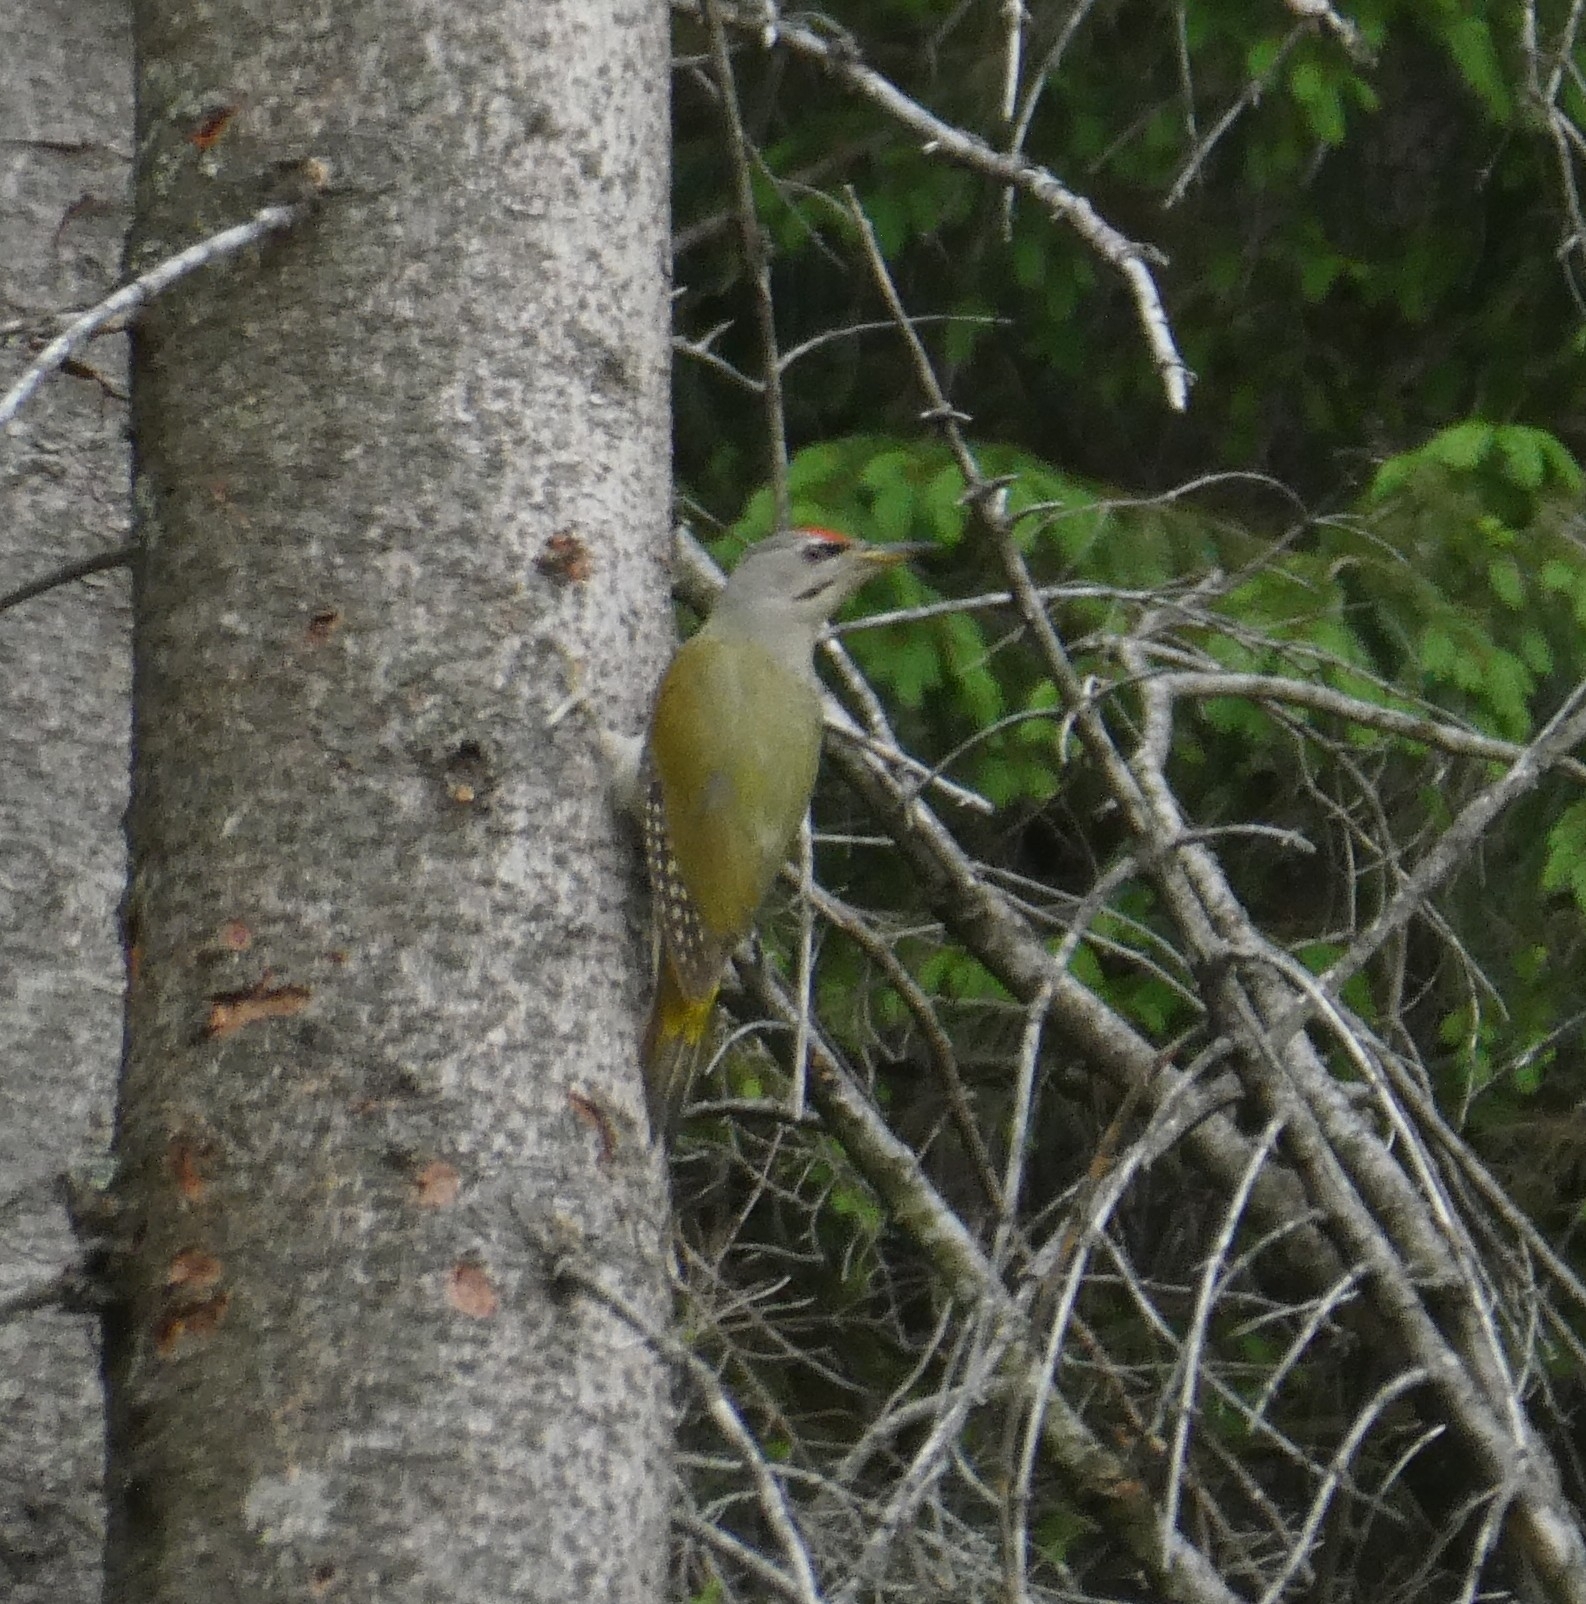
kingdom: Animalia
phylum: Chordata
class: Aves
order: Piciformes
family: Picidae
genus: Picus
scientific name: Picus canus
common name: Grey-headed woodpecker
